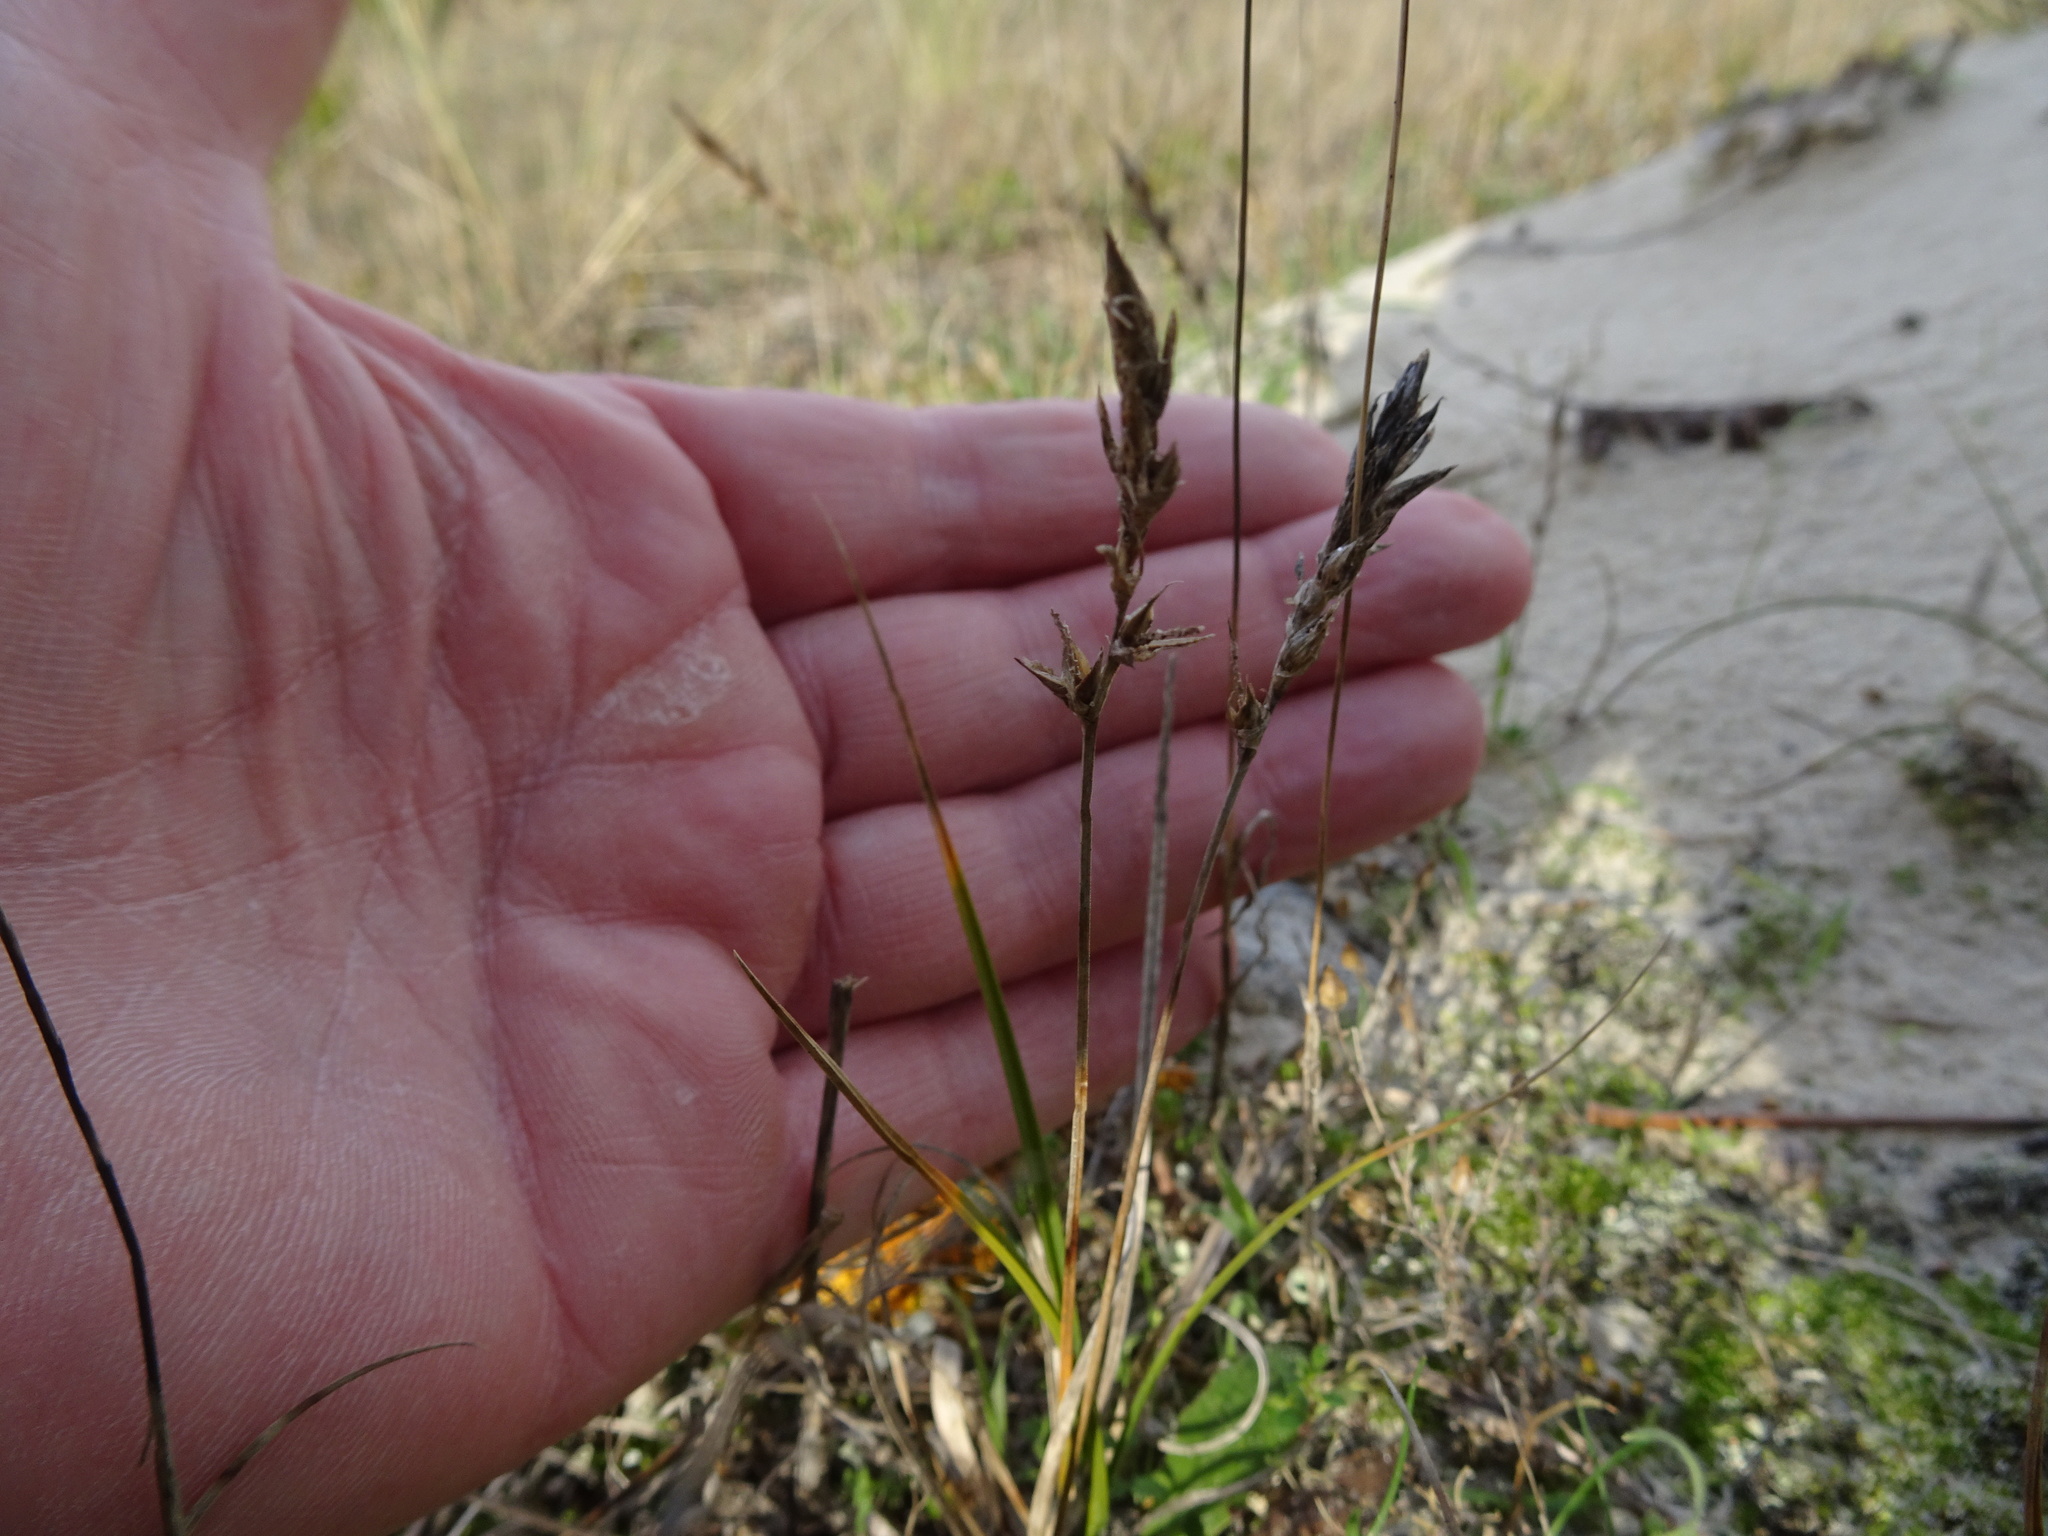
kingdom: Plantae
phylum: Tracheophyta
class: Liliopsida
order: Poales
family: Cyperaceae
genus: Carex
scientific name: Carex arenaria
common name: Sand sedge
